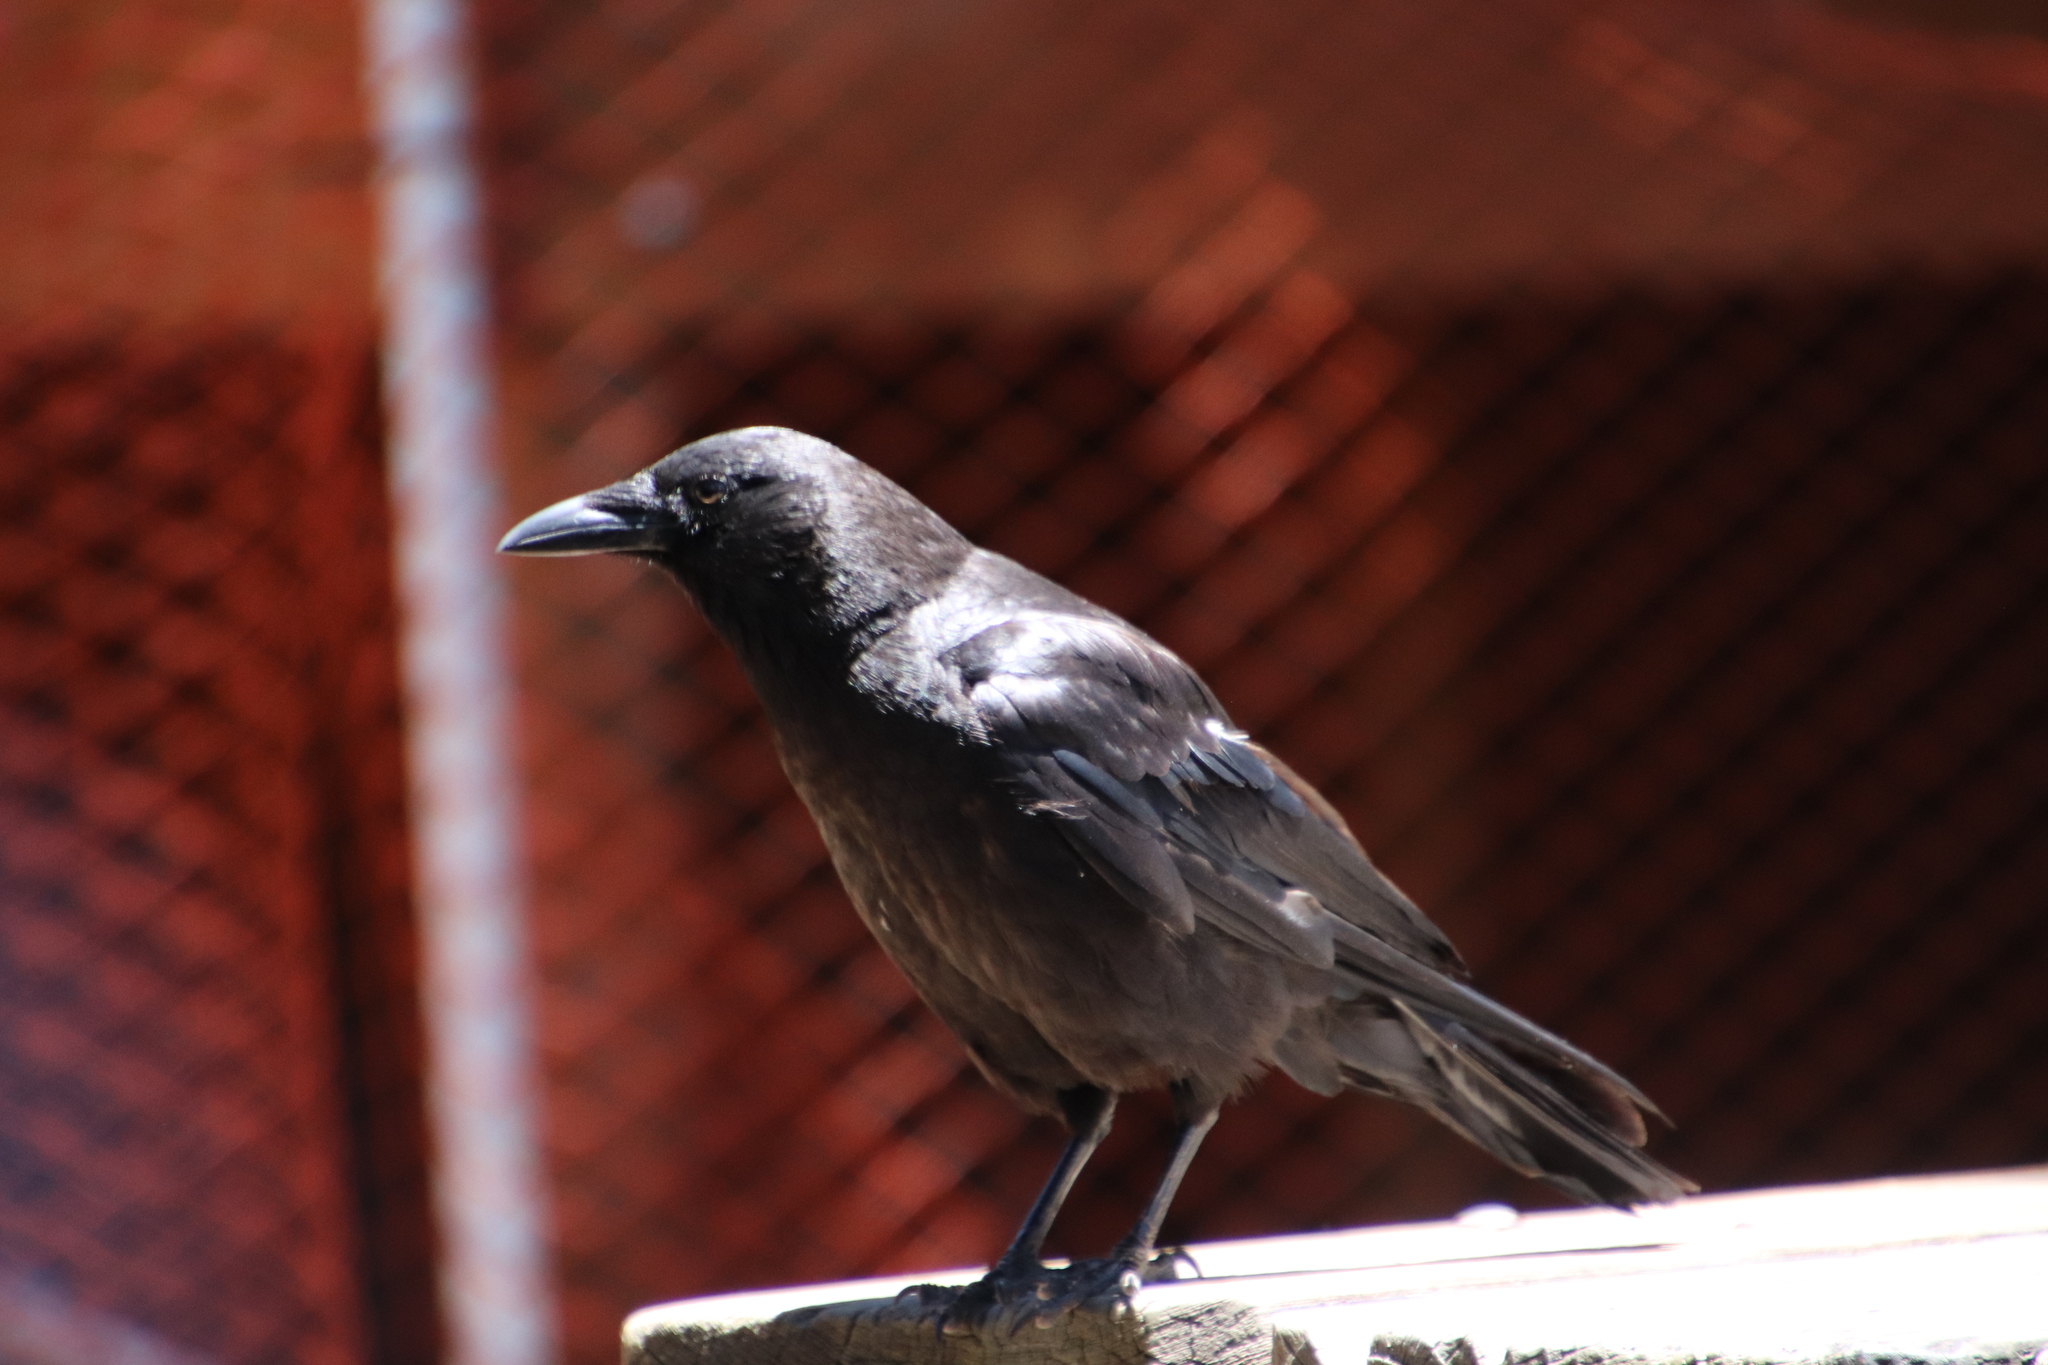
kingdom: Animalia
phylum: Chordata
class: Aves
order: Passeriformes
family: Corvidae
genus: Corvus
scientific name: Corvus brachyrhynchos
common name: American crow
